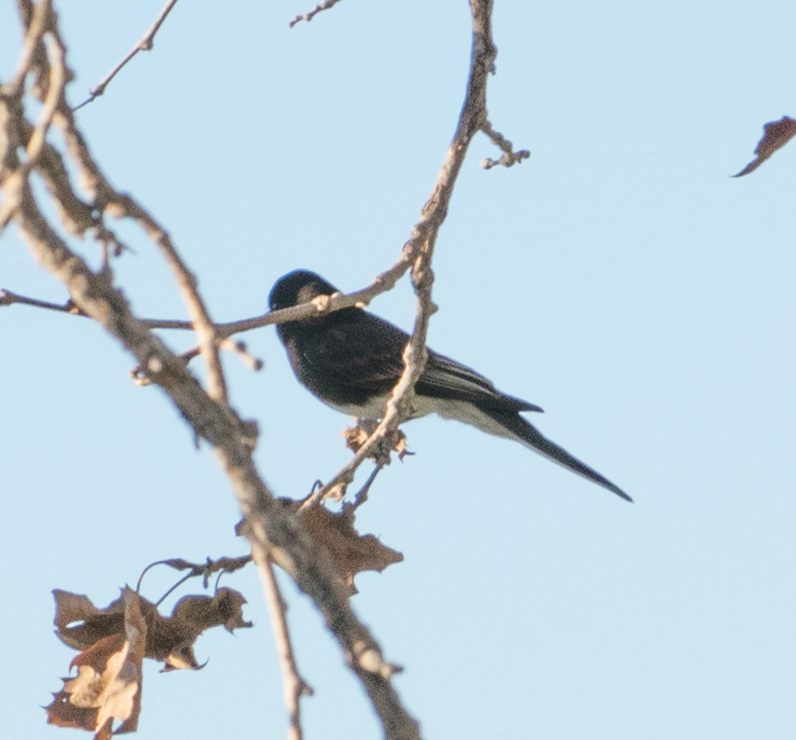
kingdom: Animalia
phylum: Chordata
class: Aves
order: Passeriformes
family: Tyrannidae
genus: Sayornis
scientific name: Sayornis nigricans
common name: Black phoebe
